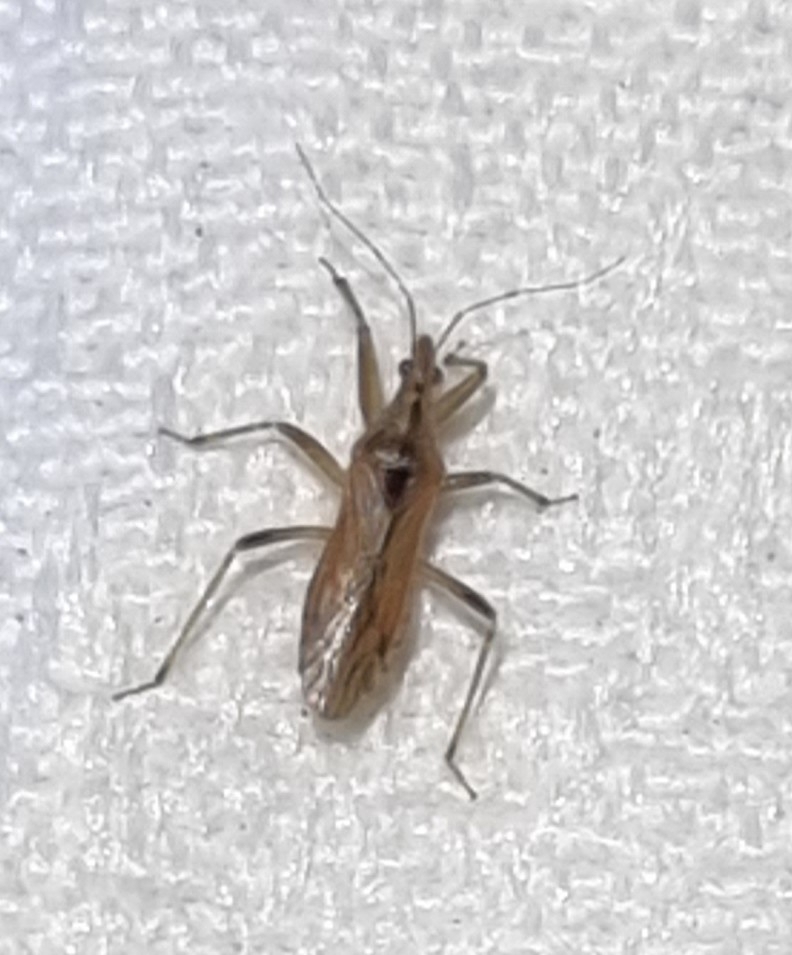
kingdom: Animalia
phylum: Arthropoda
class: Insecta
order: Hemiptera
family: Nabidae
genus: Stenonabis
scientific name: Stenonabis
